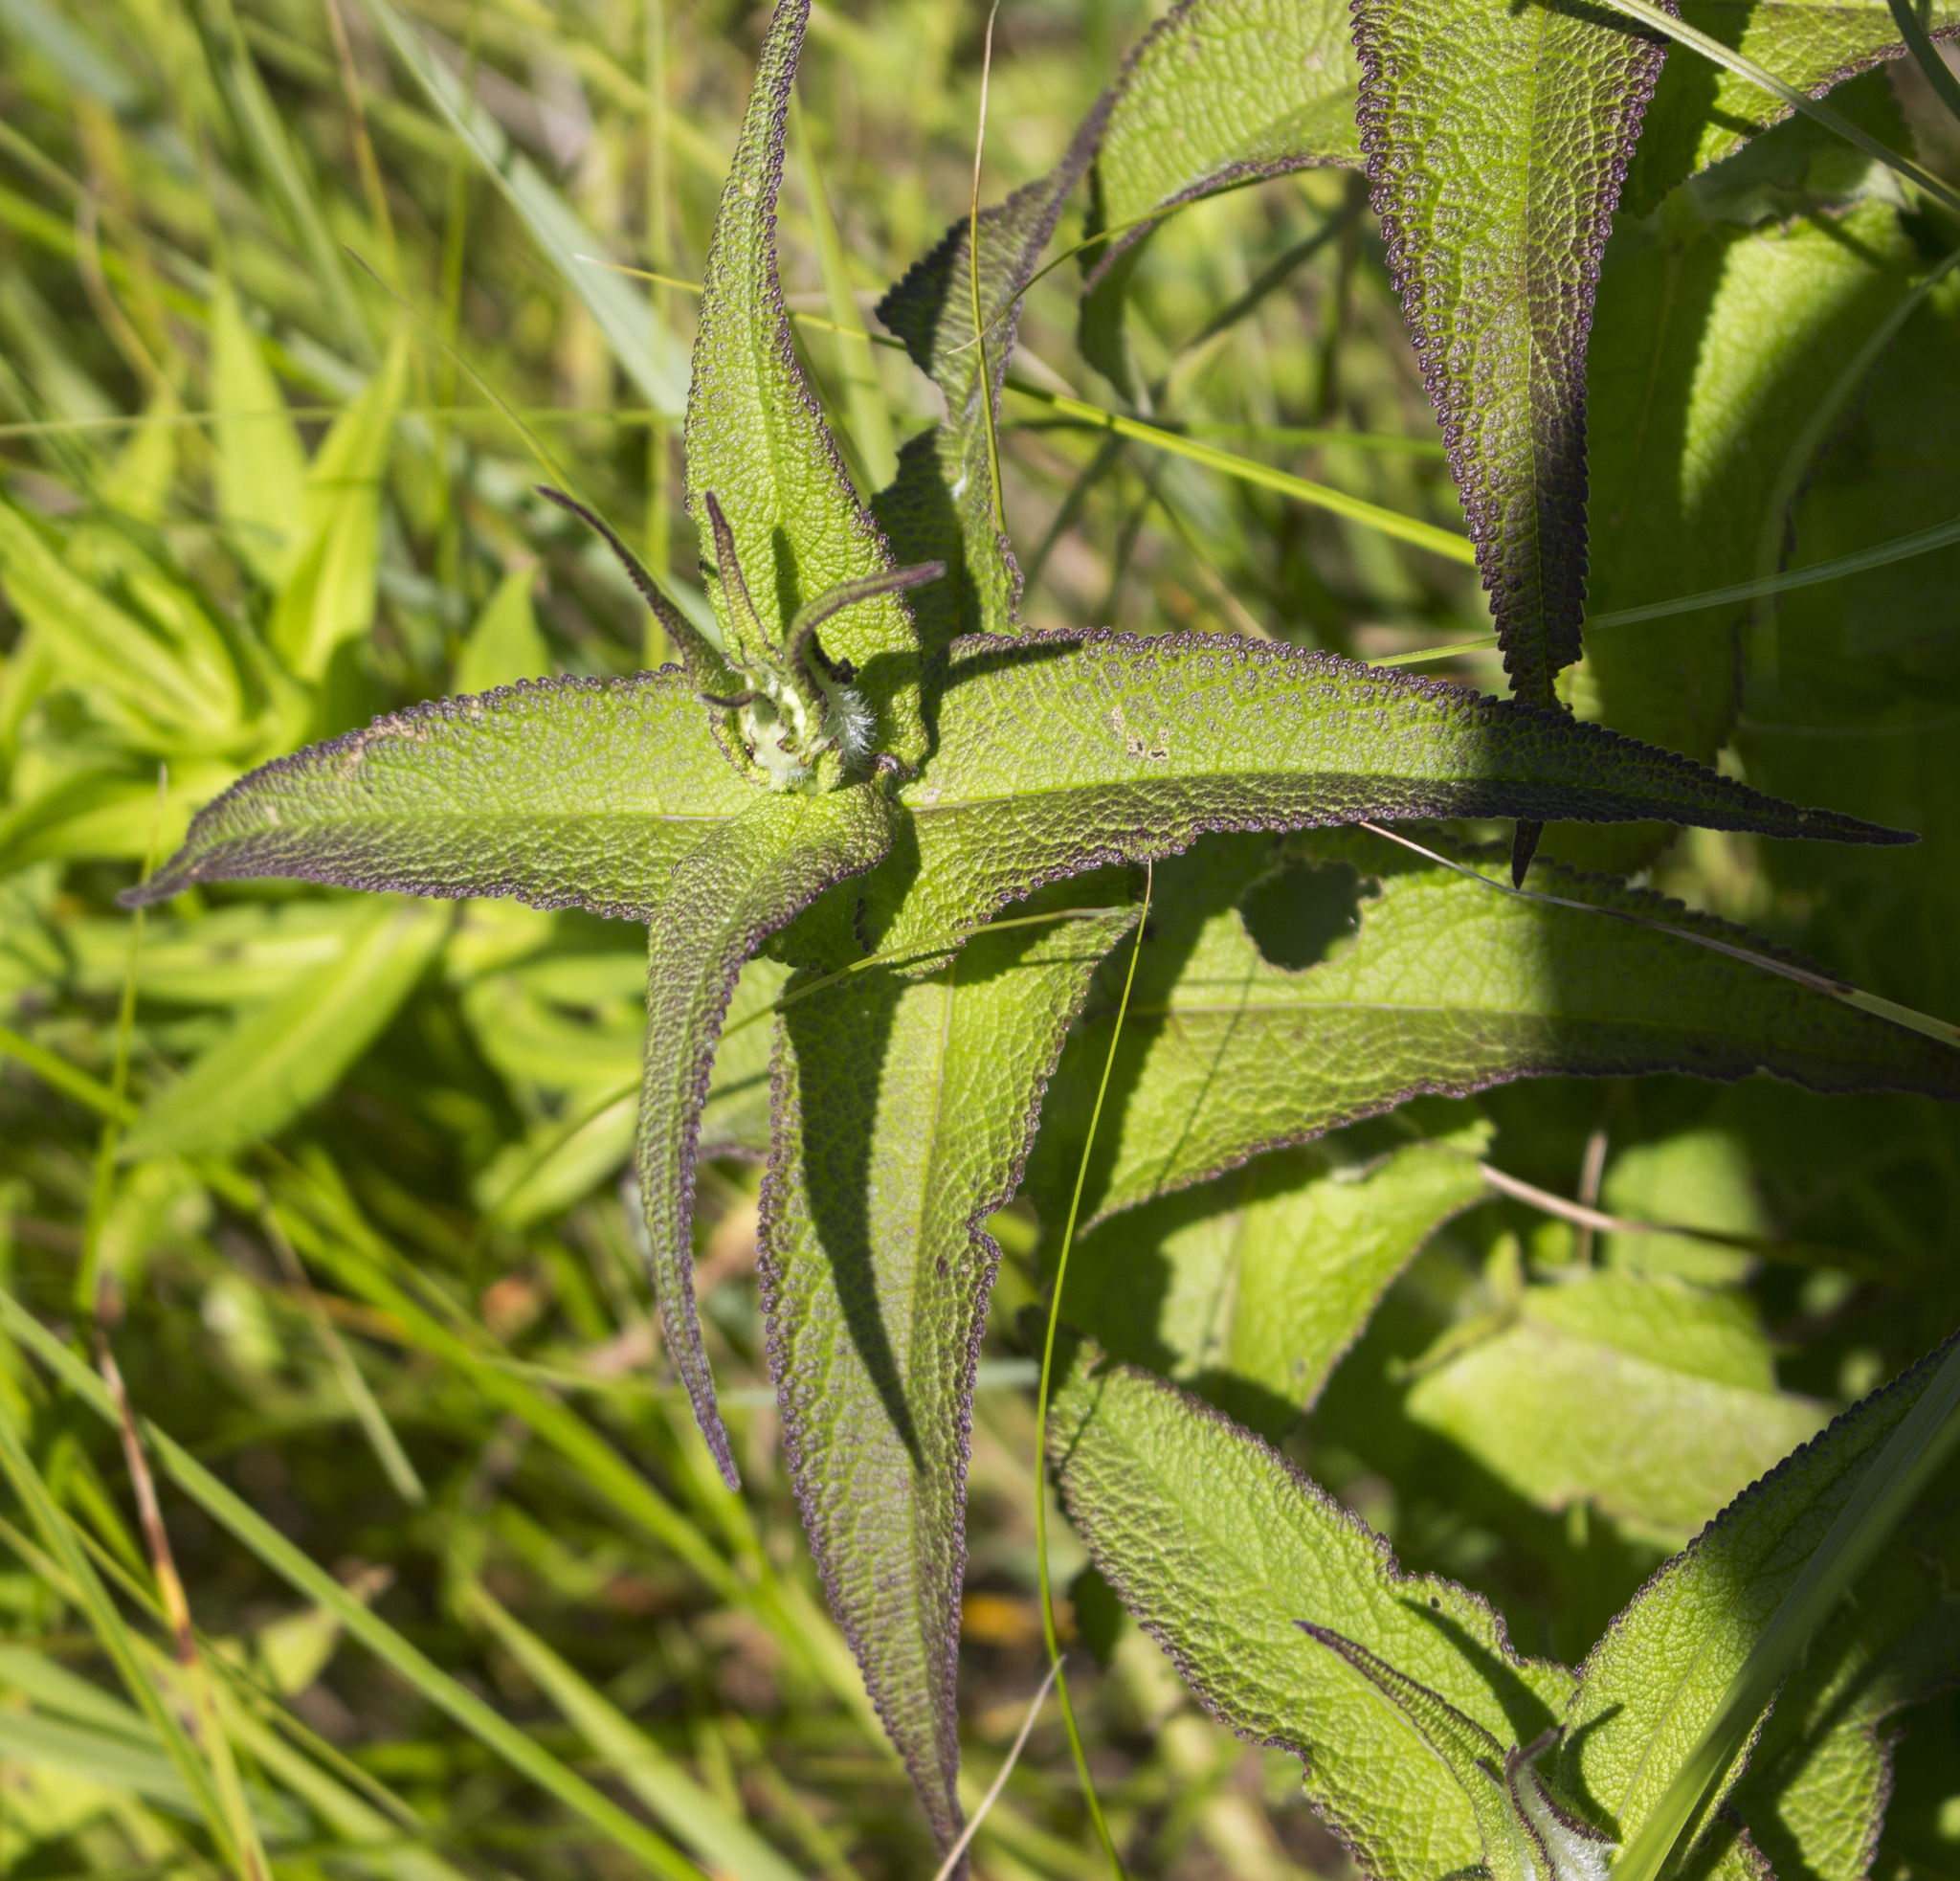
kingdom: Plantae
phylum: Tracheophyta
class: Magnoliopsida
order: Asterales
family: Asteraceae
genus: Eupatorium
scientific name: Eupatorium perfoliatum
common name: Boneset
